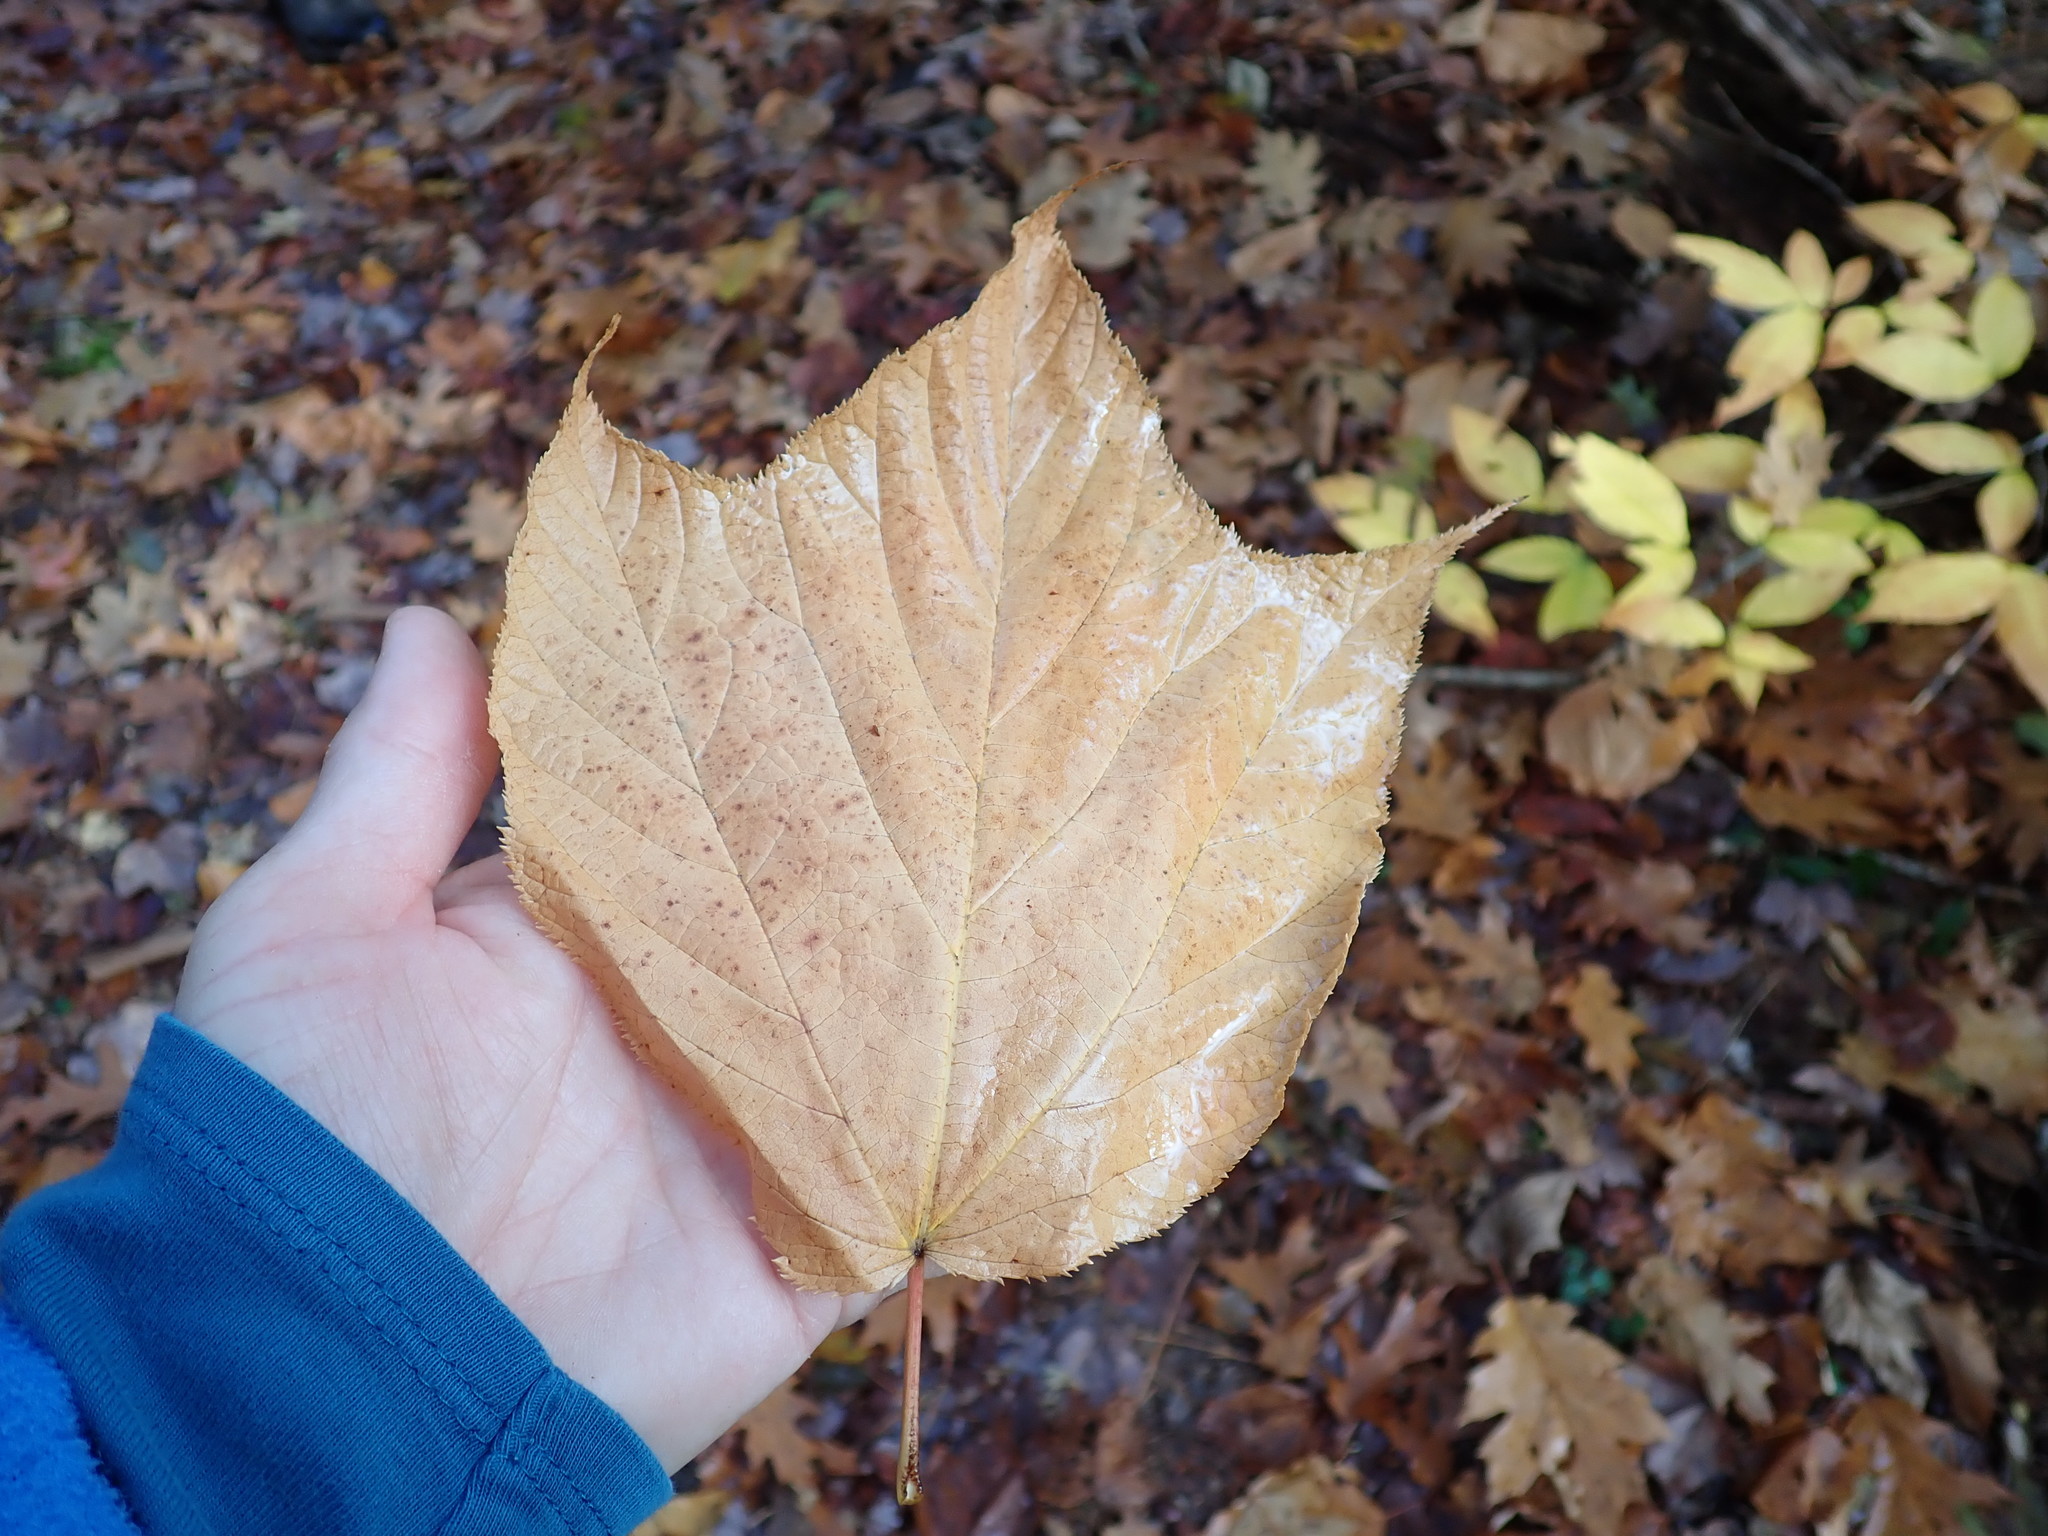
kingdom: Plantae
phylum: Tracheophyta
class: Magnoliopsida
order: Sapindales
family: Sapindaceae
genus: Acer
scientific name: Acer pensylvanicum
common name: Moosewood
